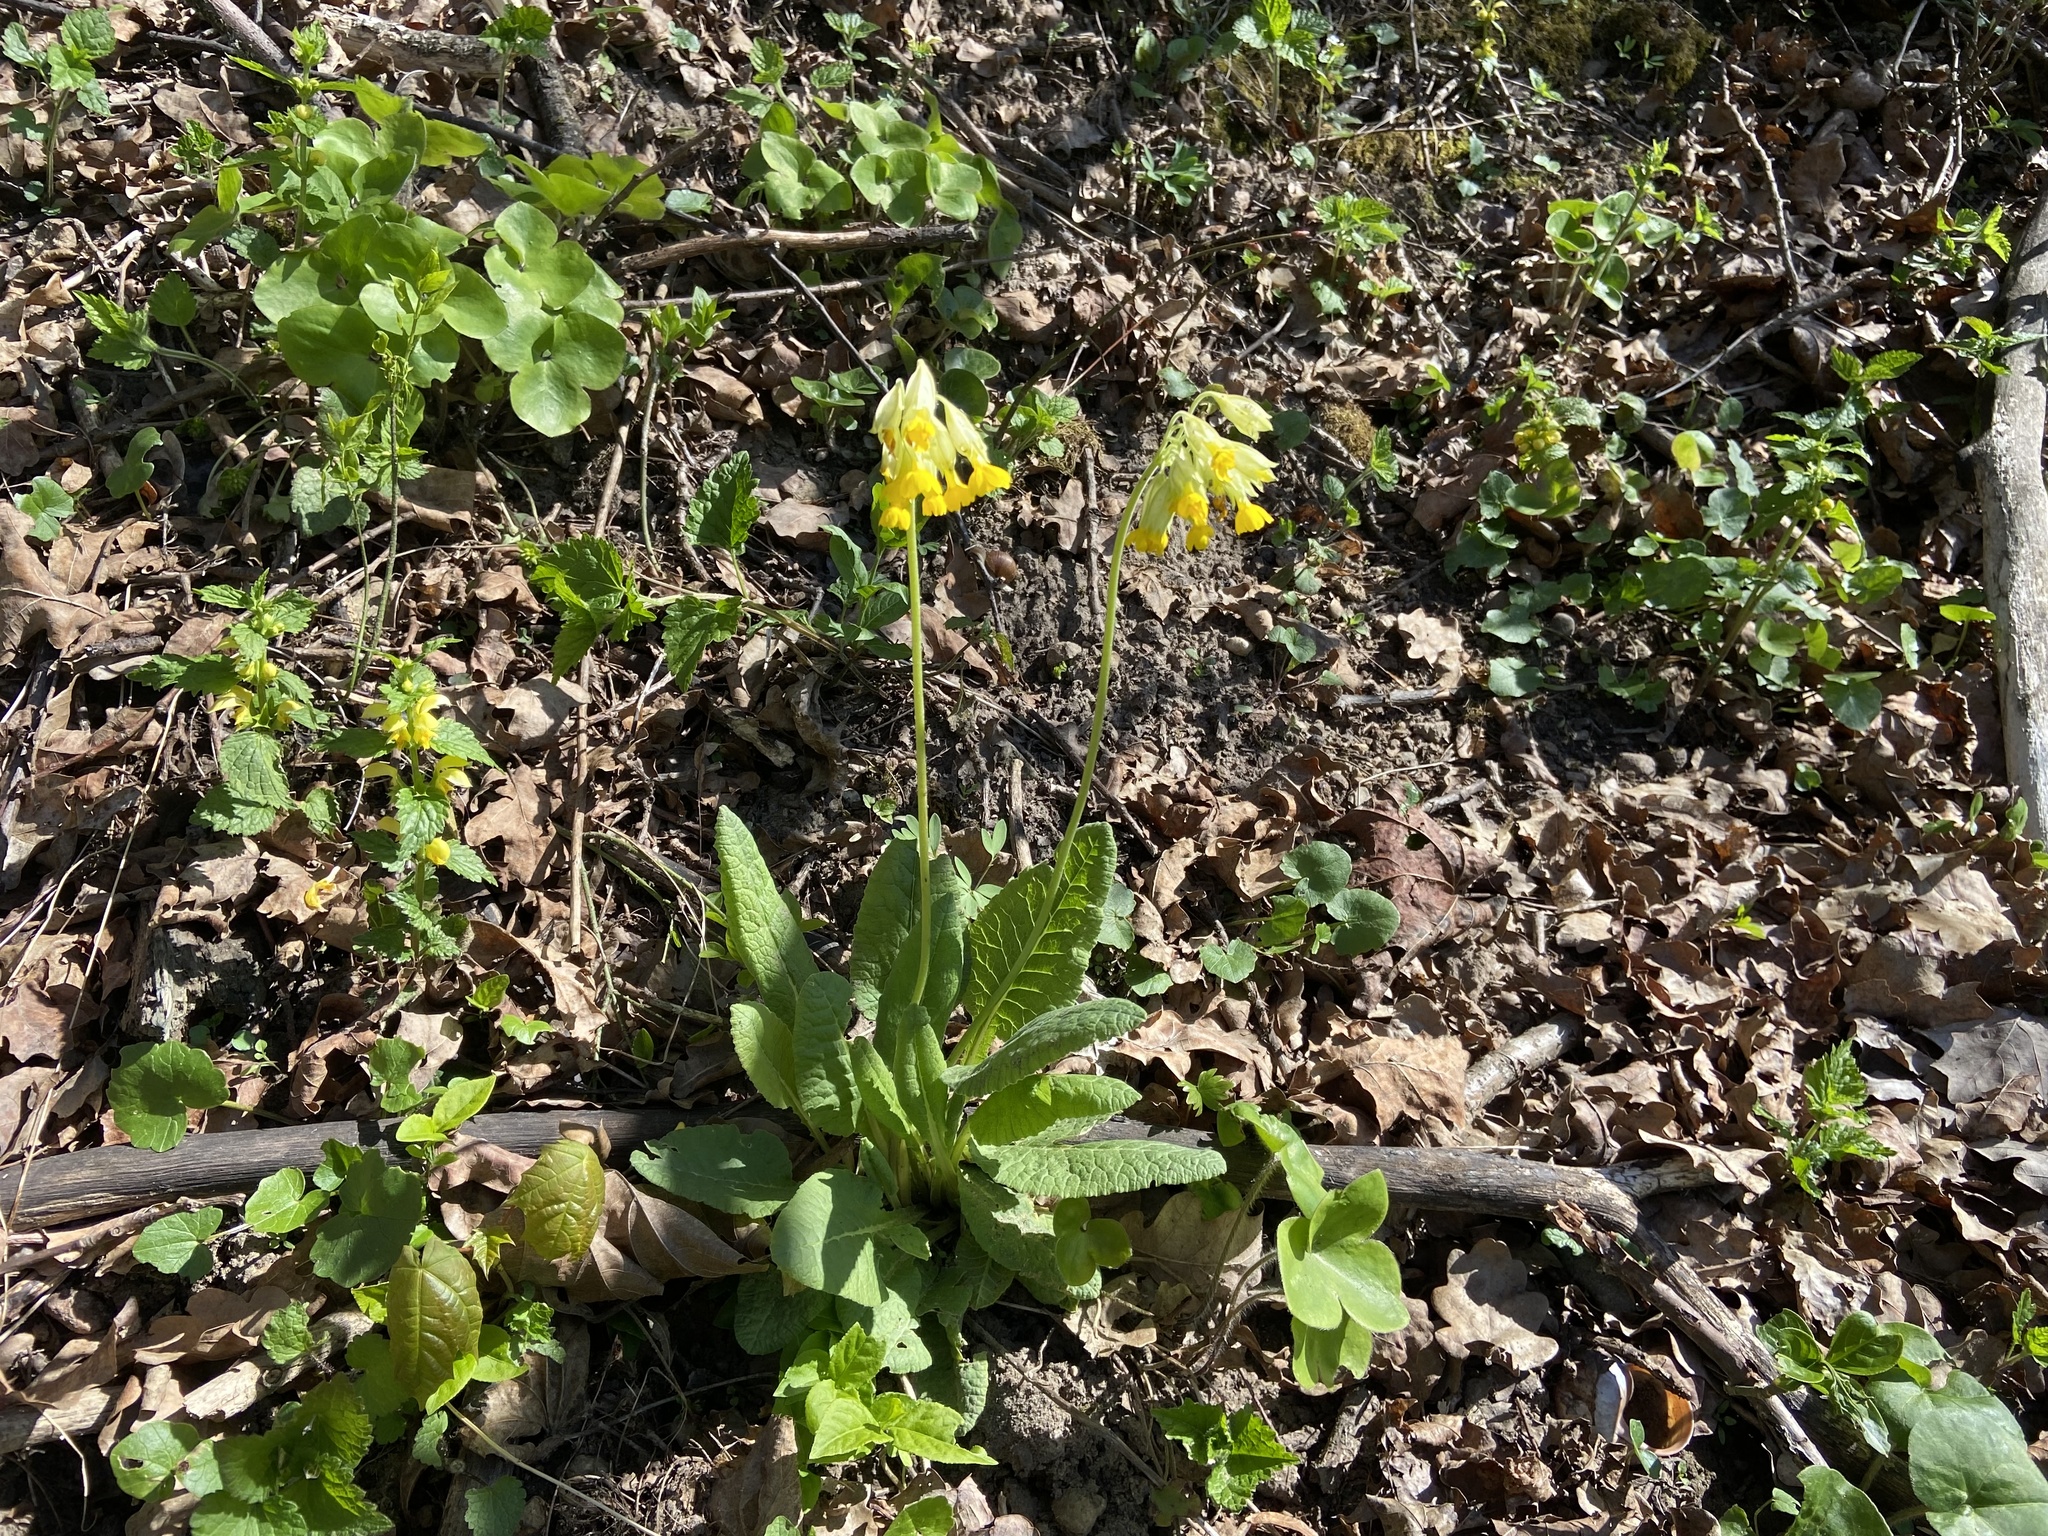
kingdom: Plantae
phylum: Tracheophyta
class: Magnoliopsida
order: Ericales
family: Primulaceae
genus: Primula
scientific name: Primula veris
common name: Cowslip
